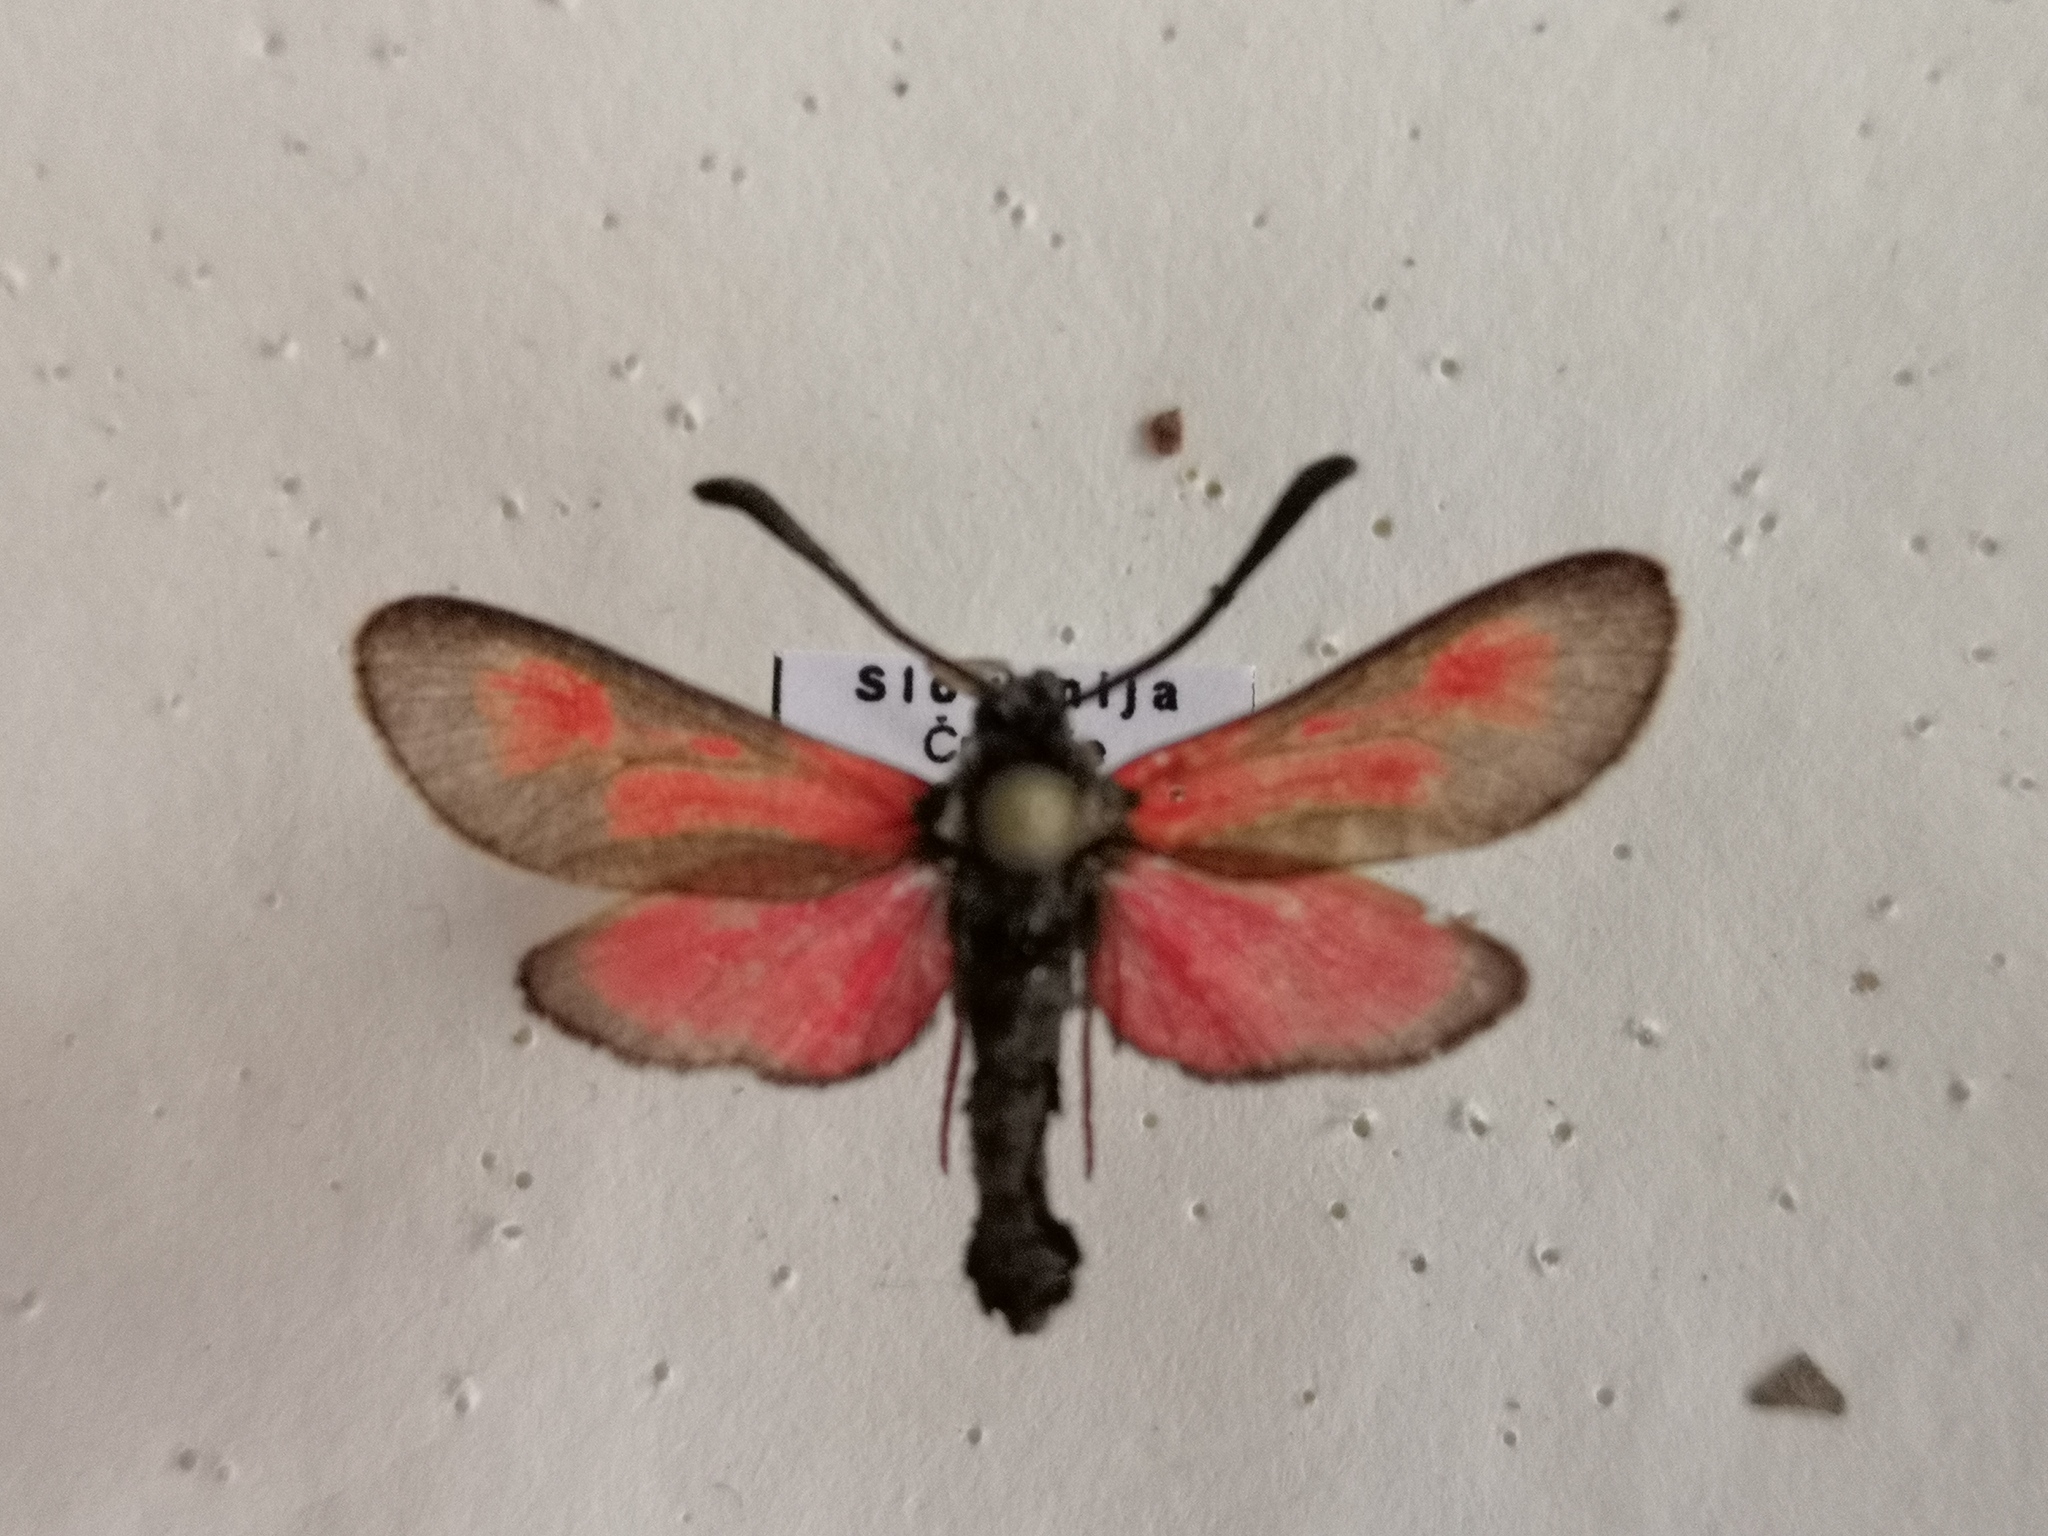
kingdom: Animalia
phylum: Arthropoda
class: Insecta
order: Lepidoptera
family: Zygaenidae
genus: Zygaena
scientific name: Zygaena punctum
